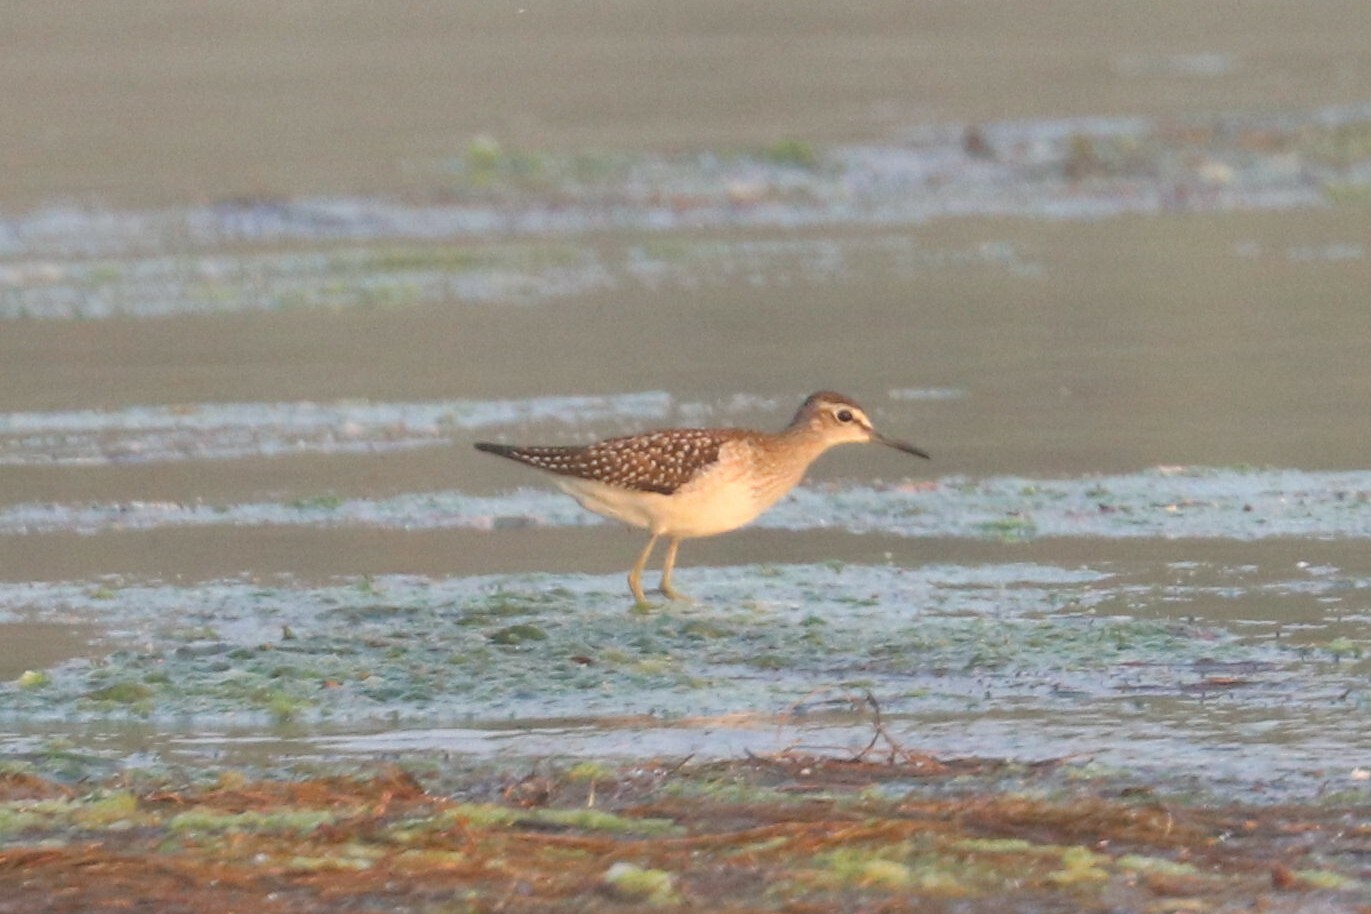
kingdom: Animalia
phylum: Chordata
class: Aves
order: Charadriiformes
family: Scolopacidae
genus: Tringa
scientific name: Tringa glareola
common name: Wood sandpiper
